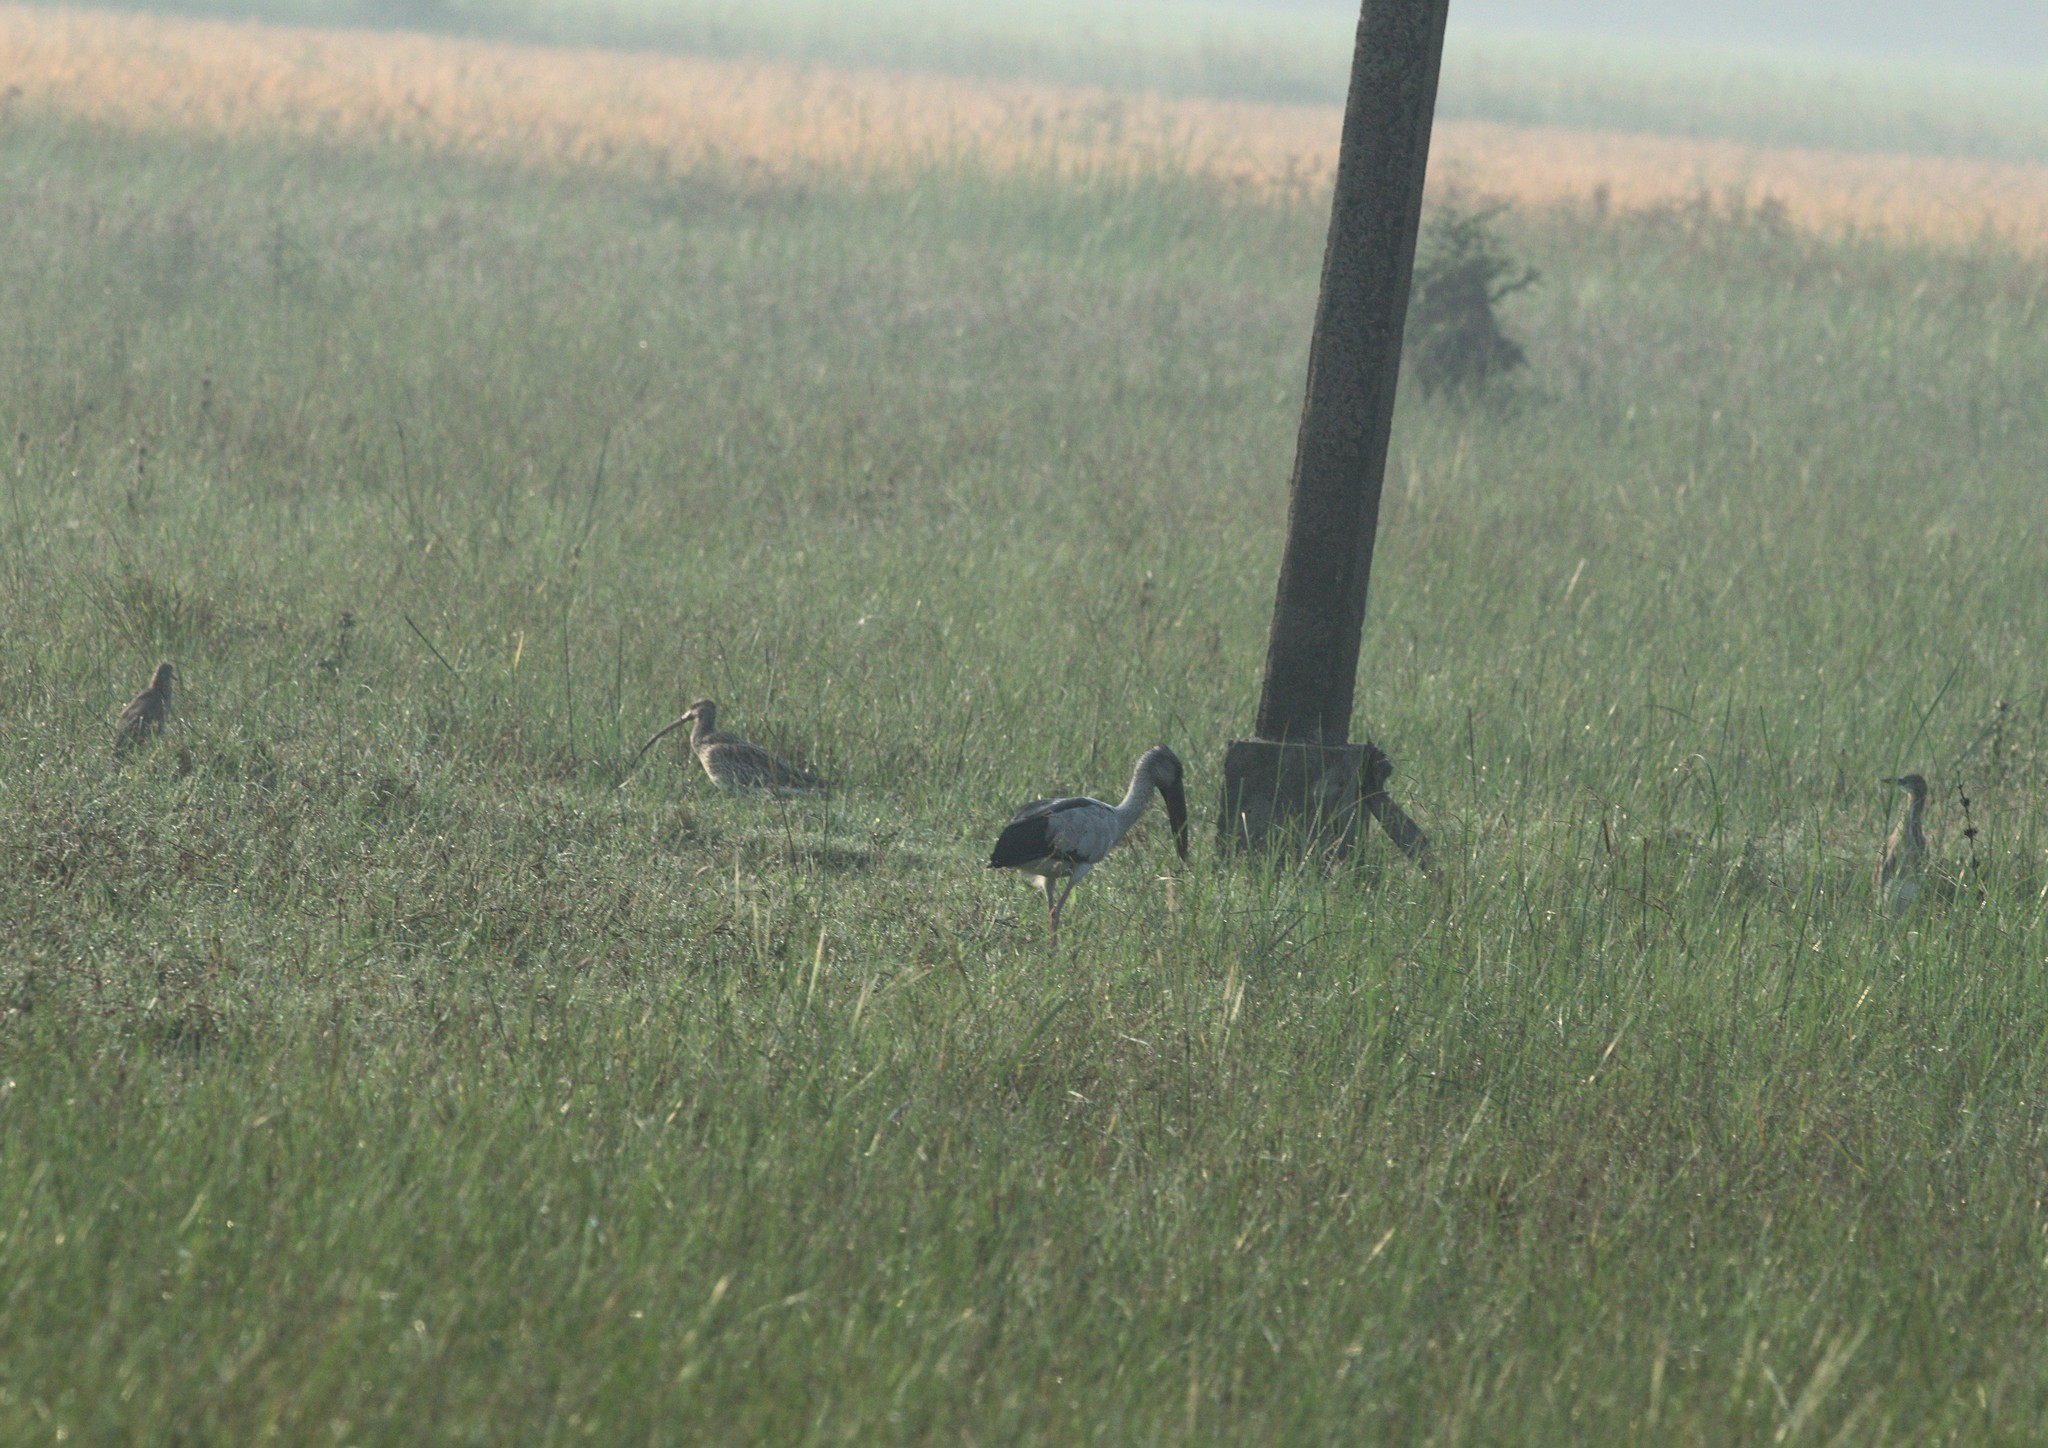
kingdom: Animalia
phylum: Chordata
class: Aves
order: Ciconiiformes
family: Ciconiidae
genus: Anastomus
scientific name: Anastomus oscitans
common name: Asian openbill
